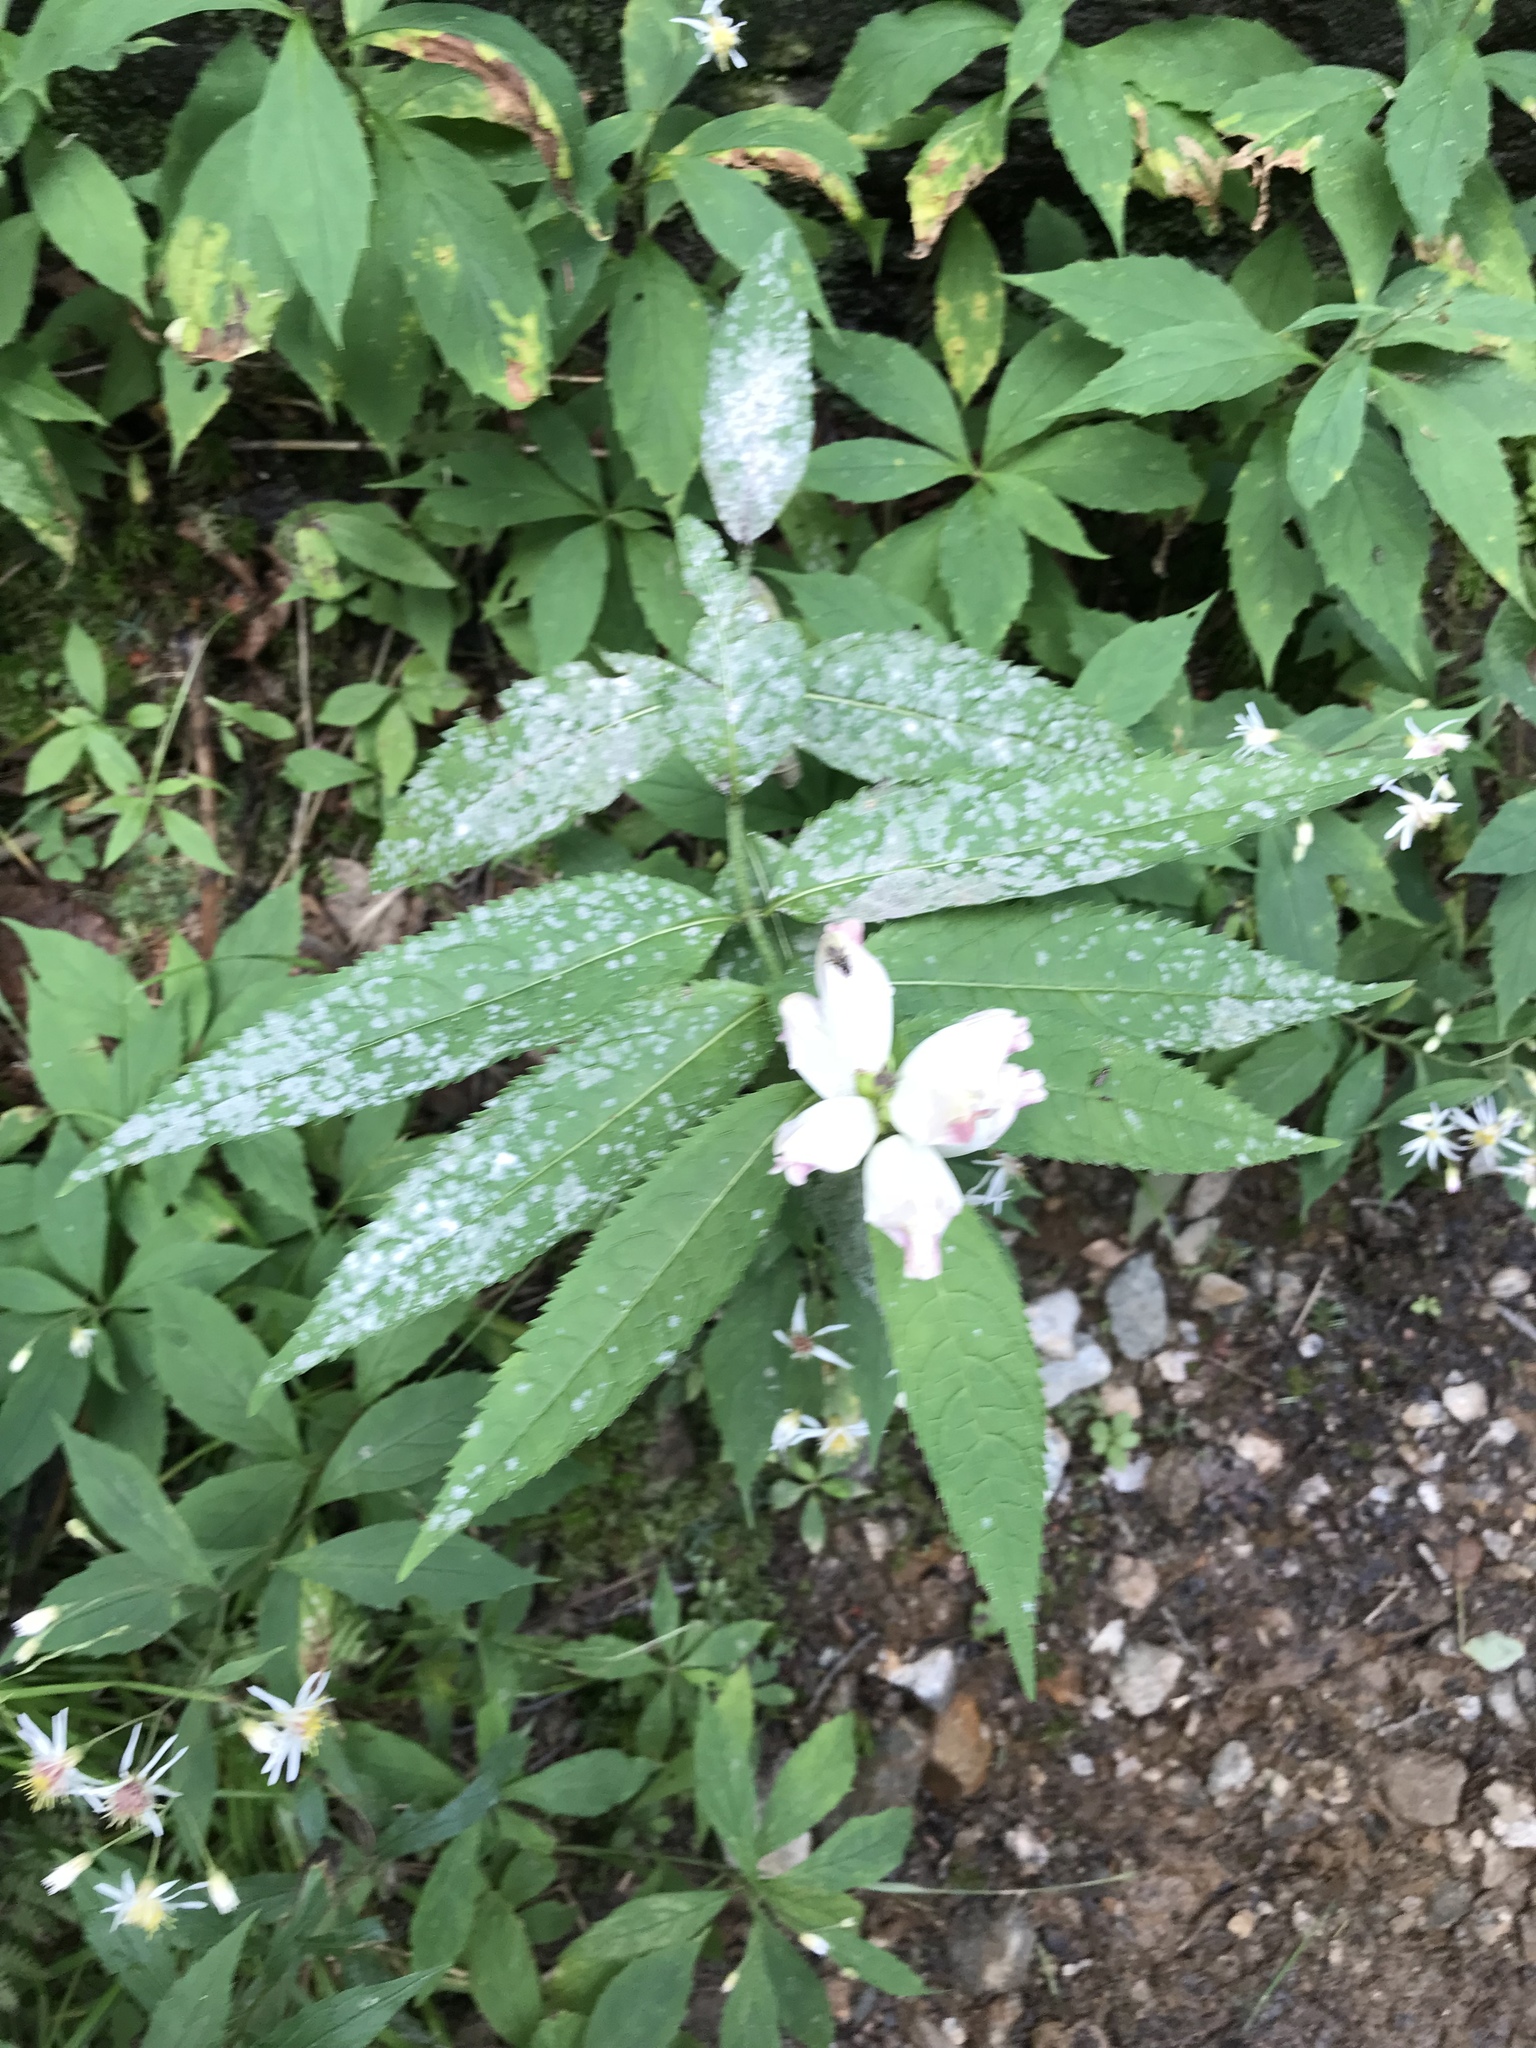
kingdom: Plantae
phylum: Tracheophyta
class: Magnoliopsida
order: Lamiales
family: Plantaginaceae
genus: Chelone
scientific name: Chelone glabra
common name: Snakehead
